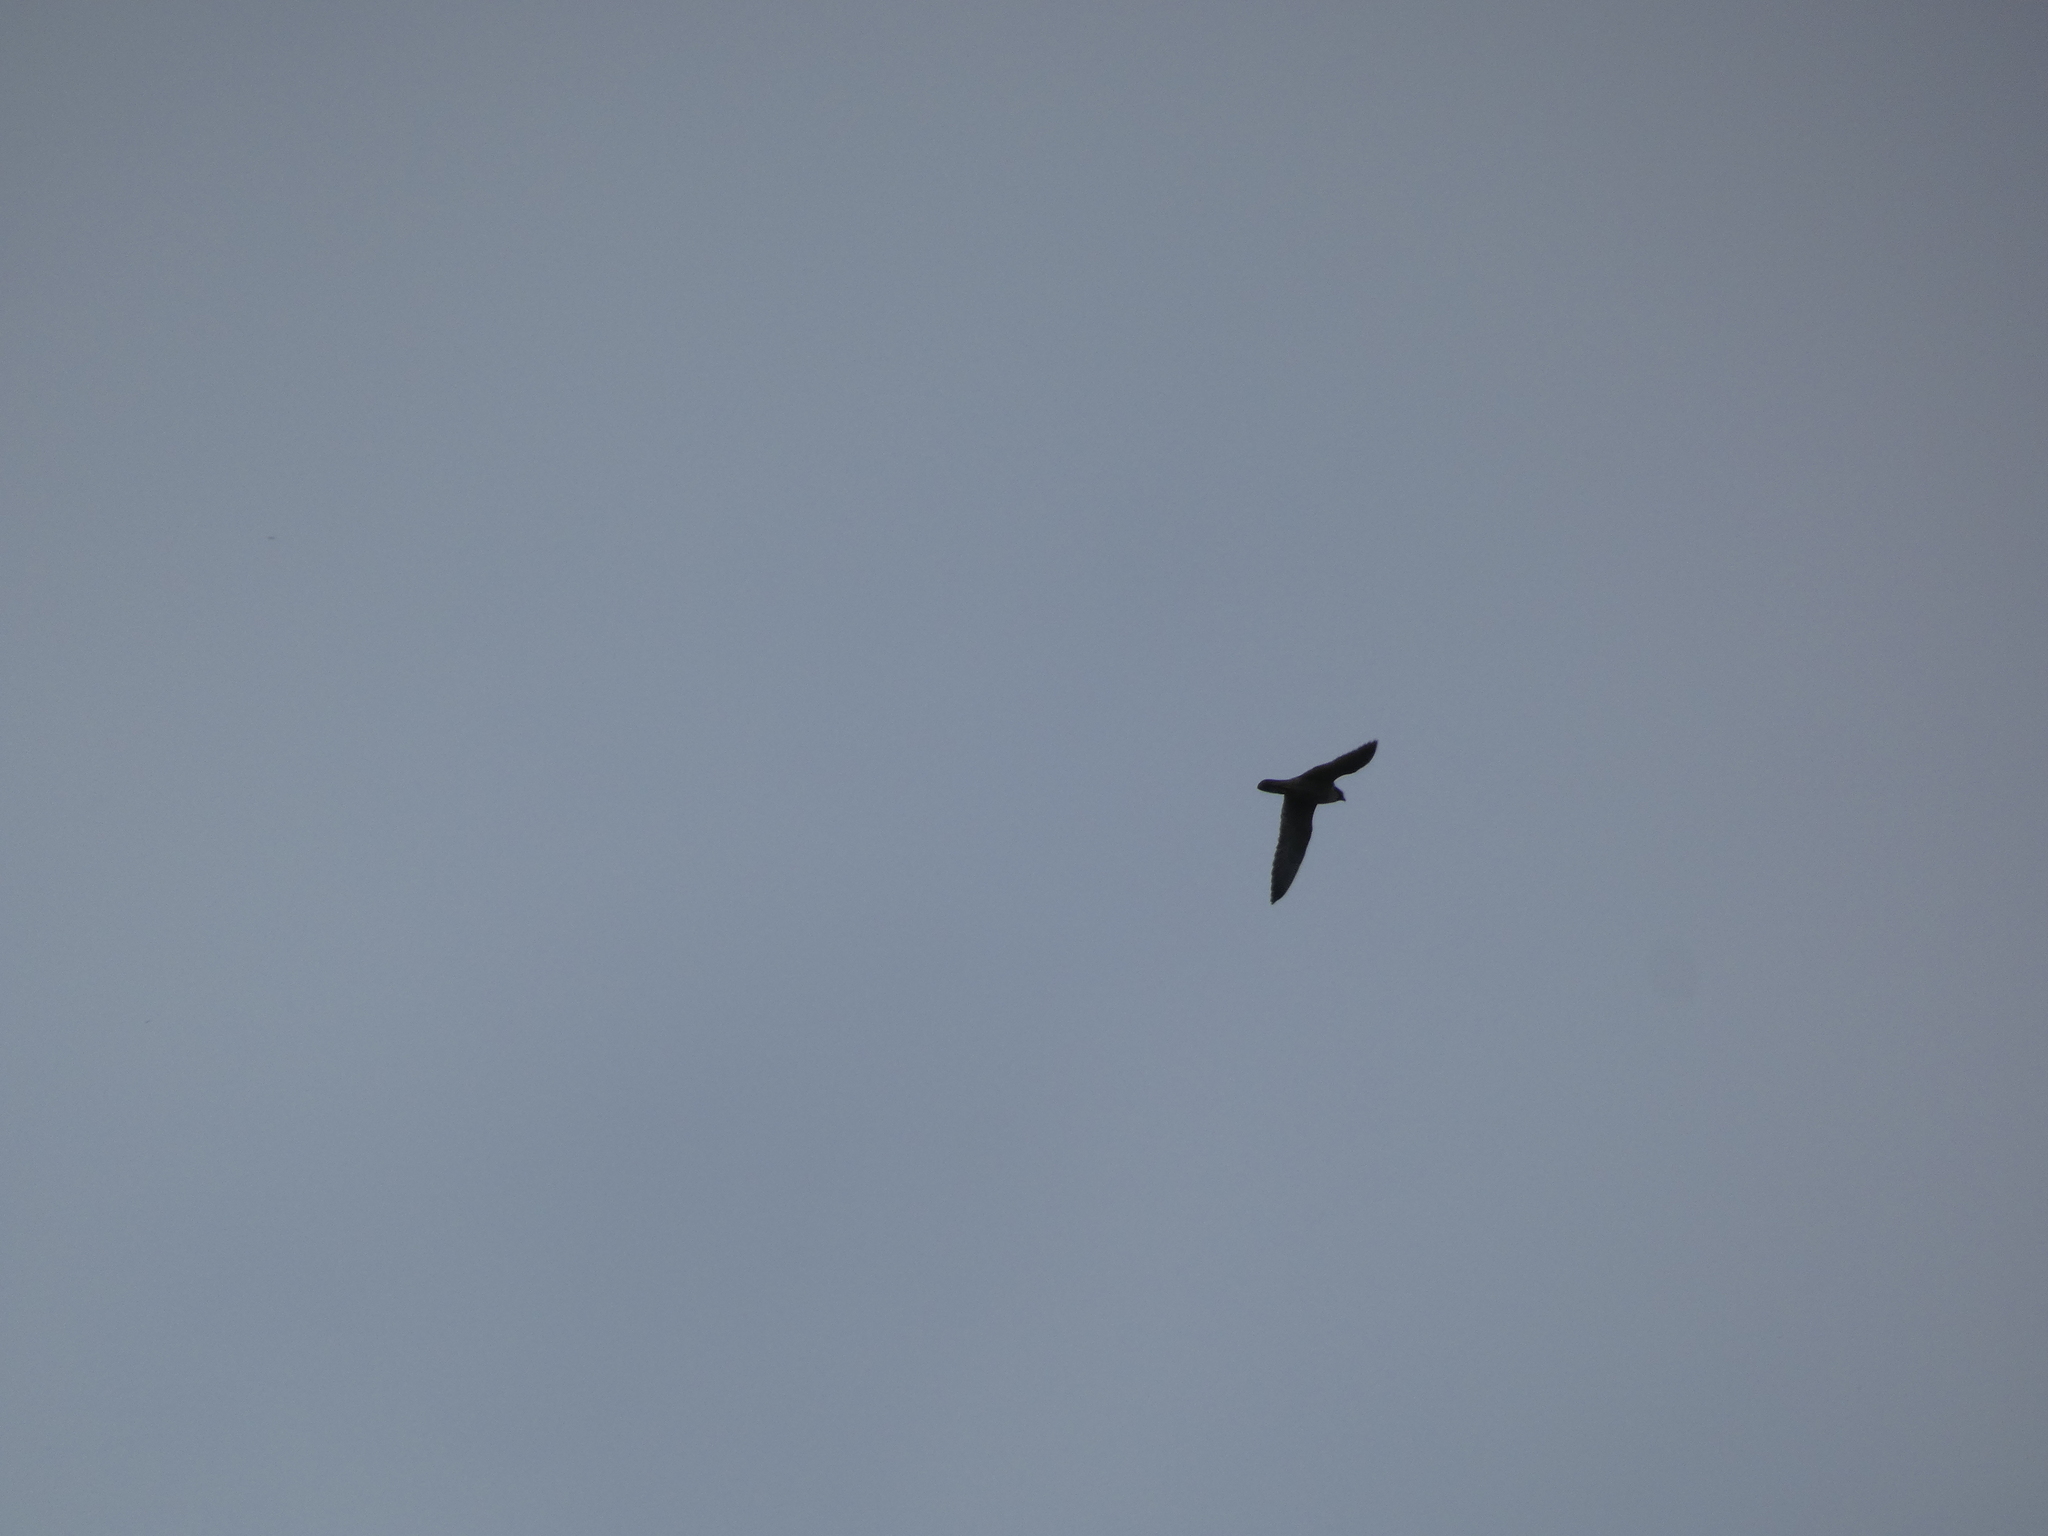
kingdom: Animalia
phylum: Chordata
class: Aves
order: Falconiformes
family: Falconidae
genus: Falco
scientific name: Falco peregrinus
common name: Peregrine falcon
